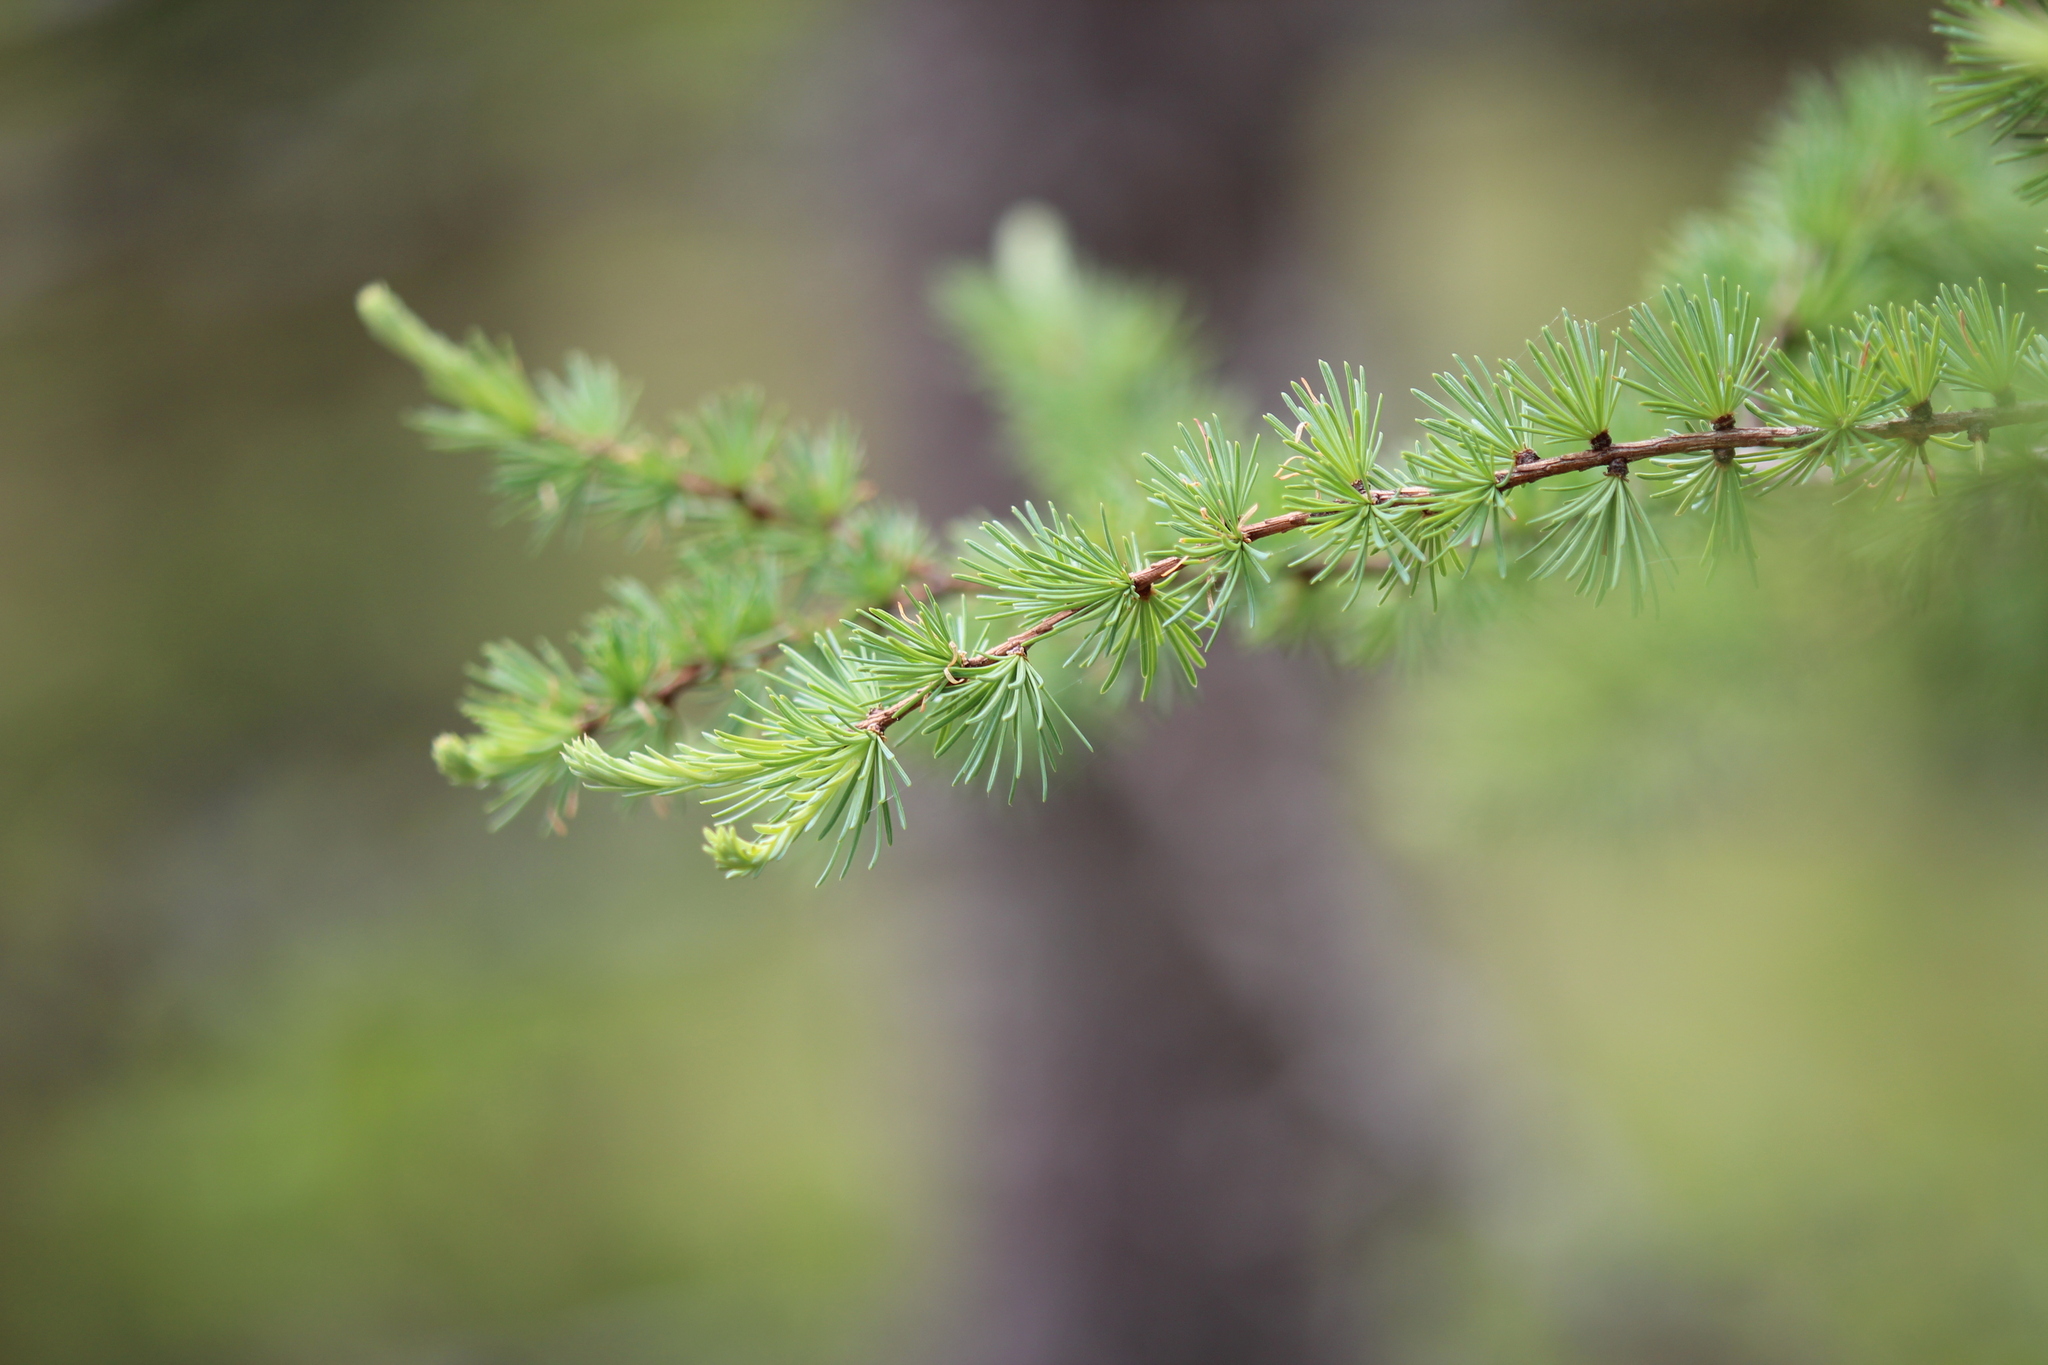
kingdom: Plantae
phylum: Tracheophyta
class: Pinopsida
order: Pinales
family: Pinaceae
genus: Larix
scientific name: Larix laricina
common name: American larch
